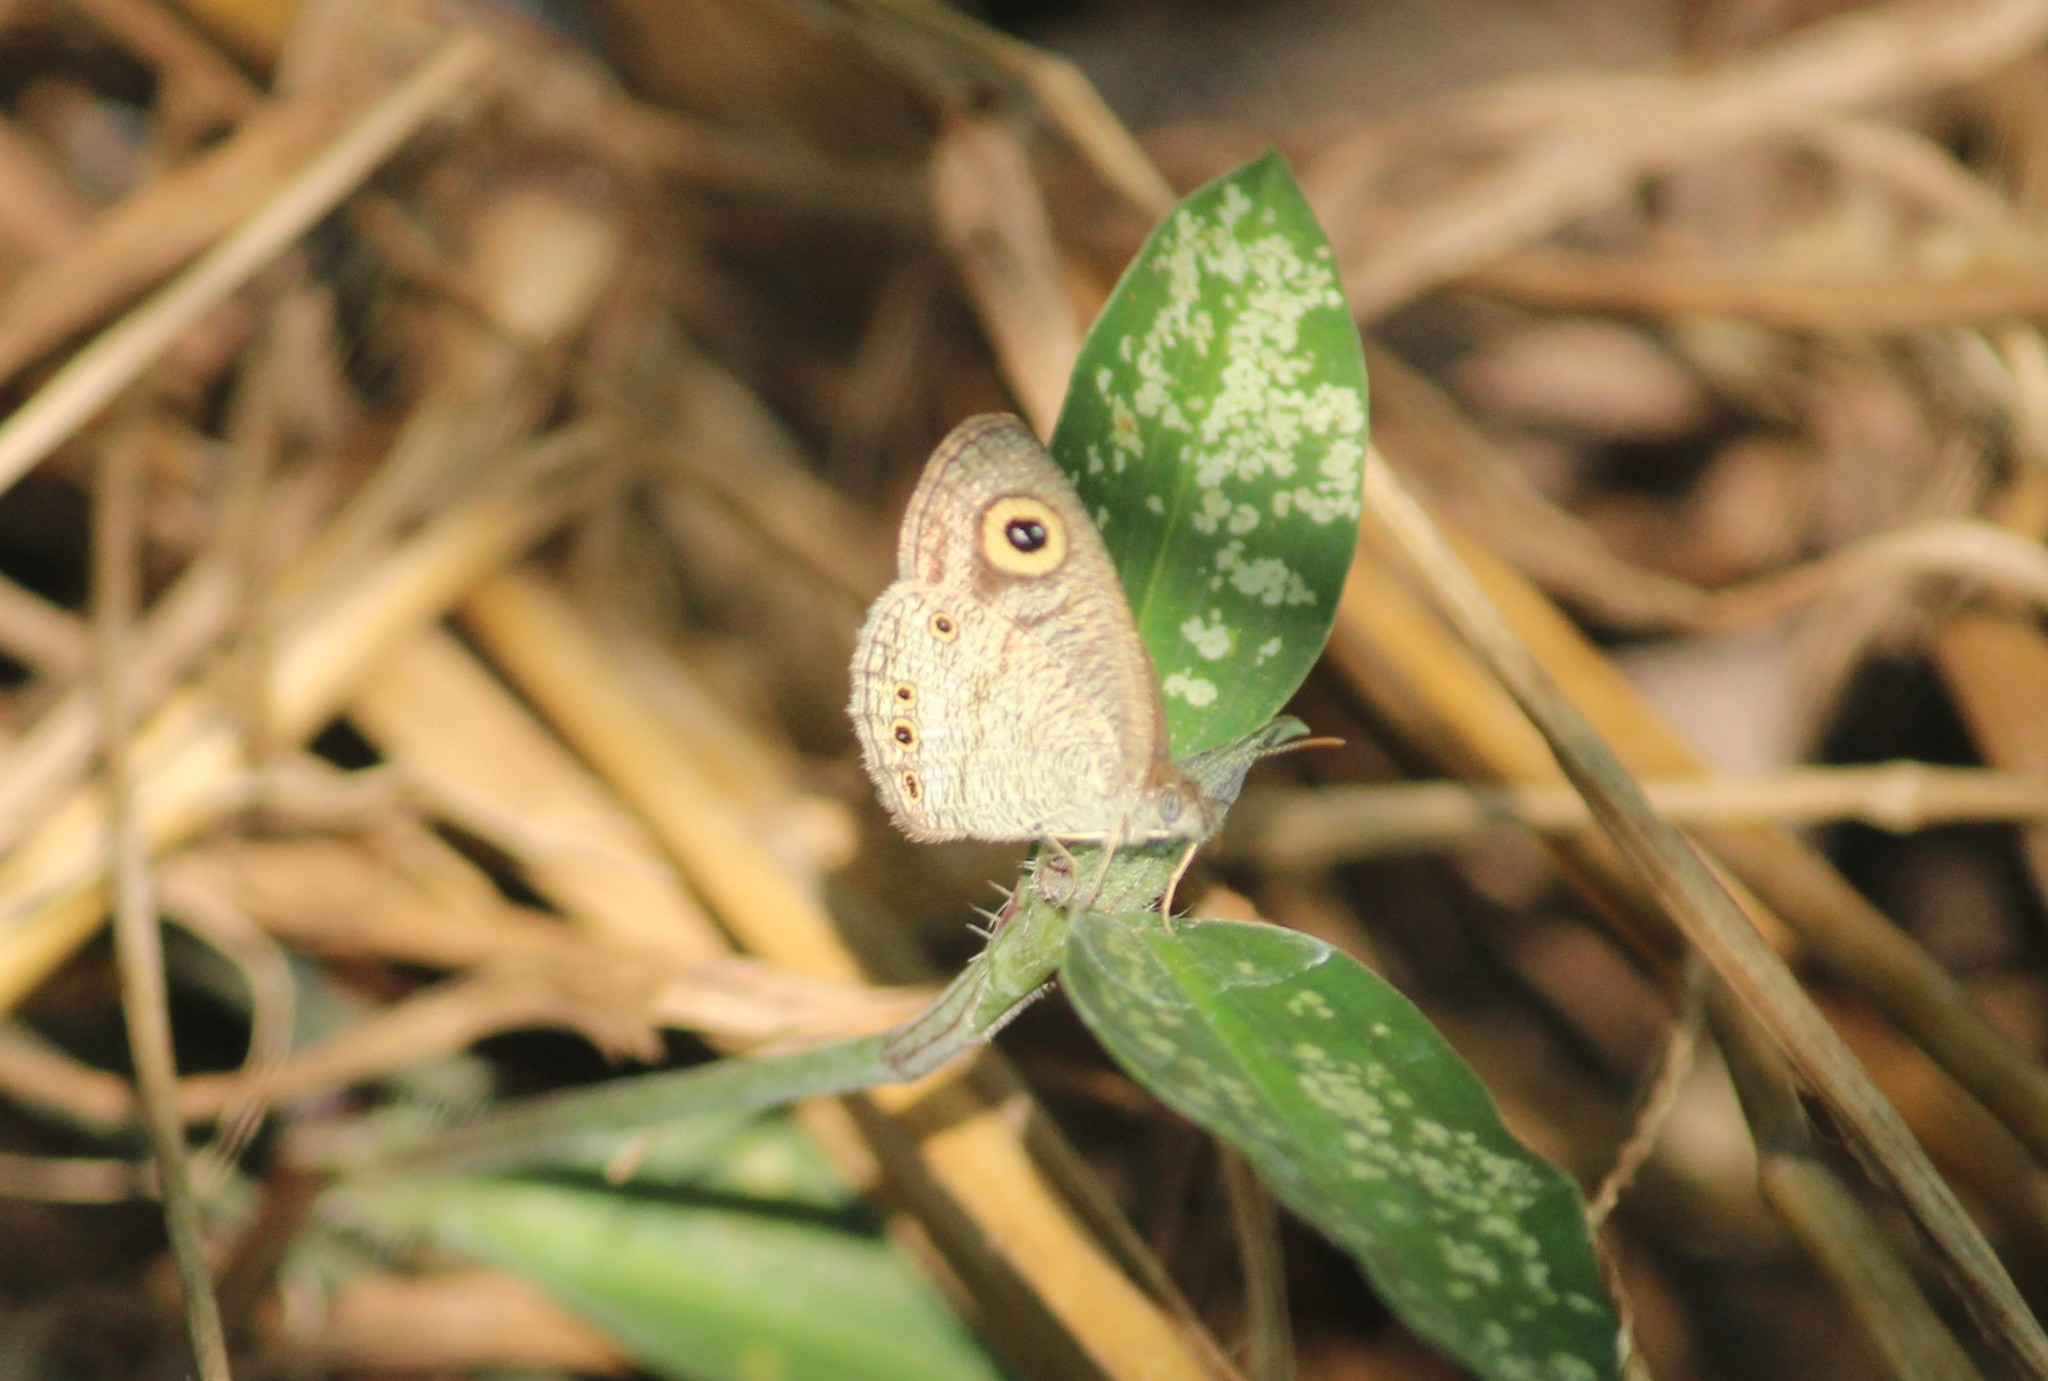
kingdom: Animalia
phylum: Arthropoda
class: Insecta
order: Lepidoptera
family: Nymphalidae
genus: Ypthima
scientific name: Ypthima huebneri
